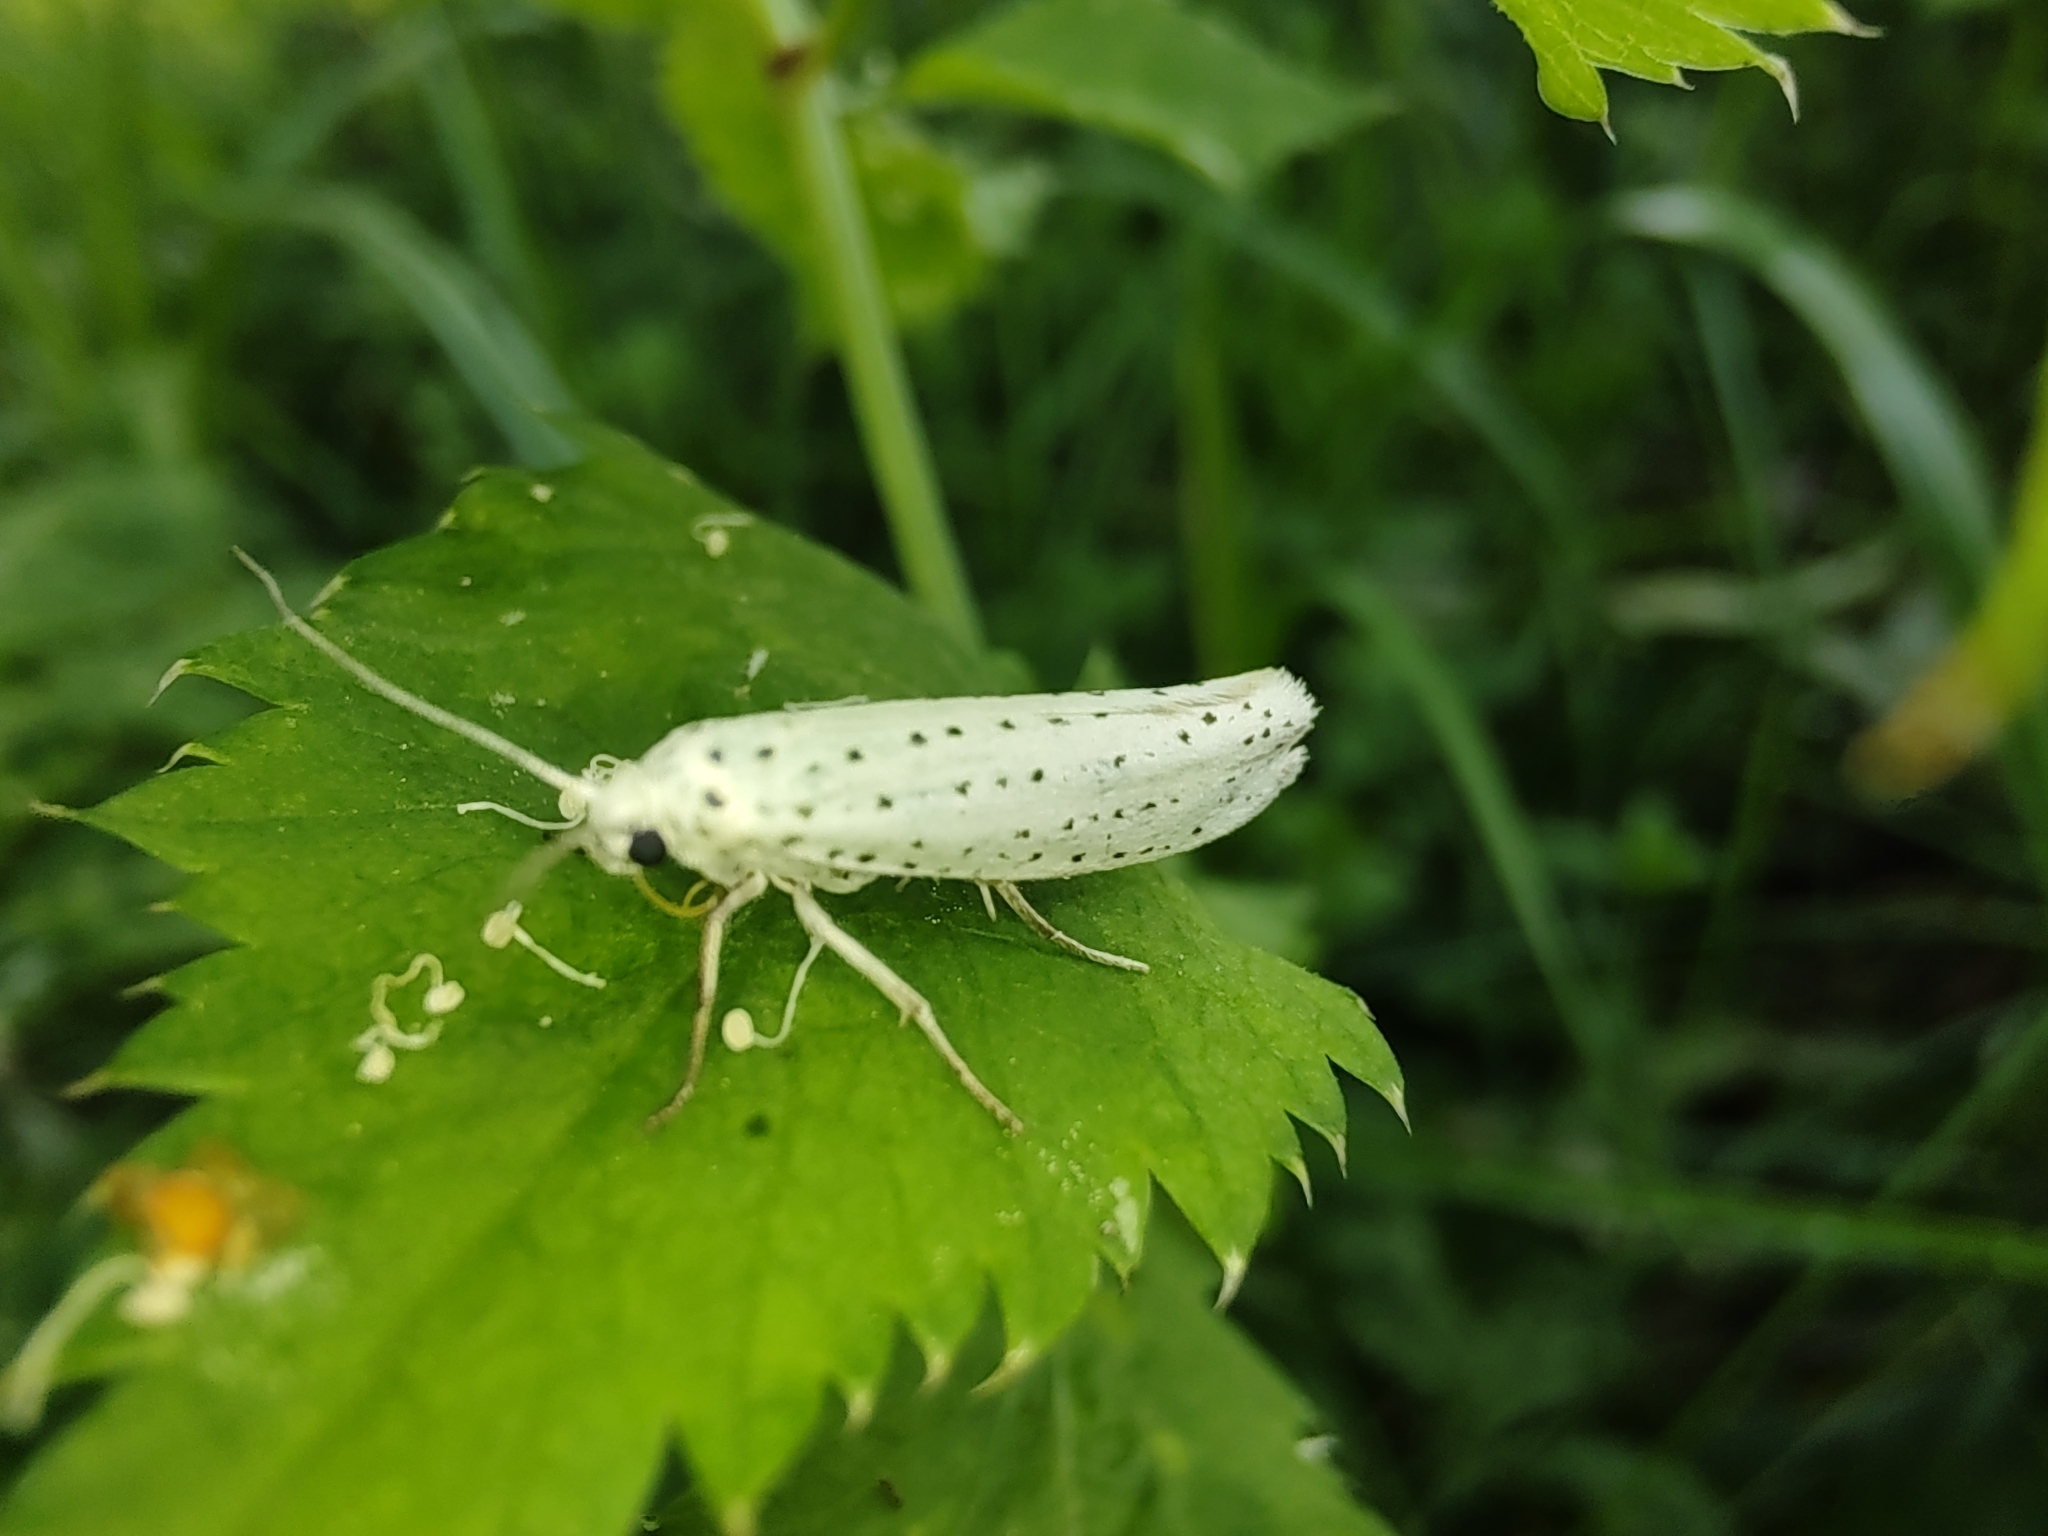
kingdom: Animalia
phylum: Arthropoda
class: Insecta
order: Lepidoptera
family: Yponomeutidae
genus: Yponomeuta
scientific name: Yponomeuta evonymella
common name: Bird-cherry ermine
